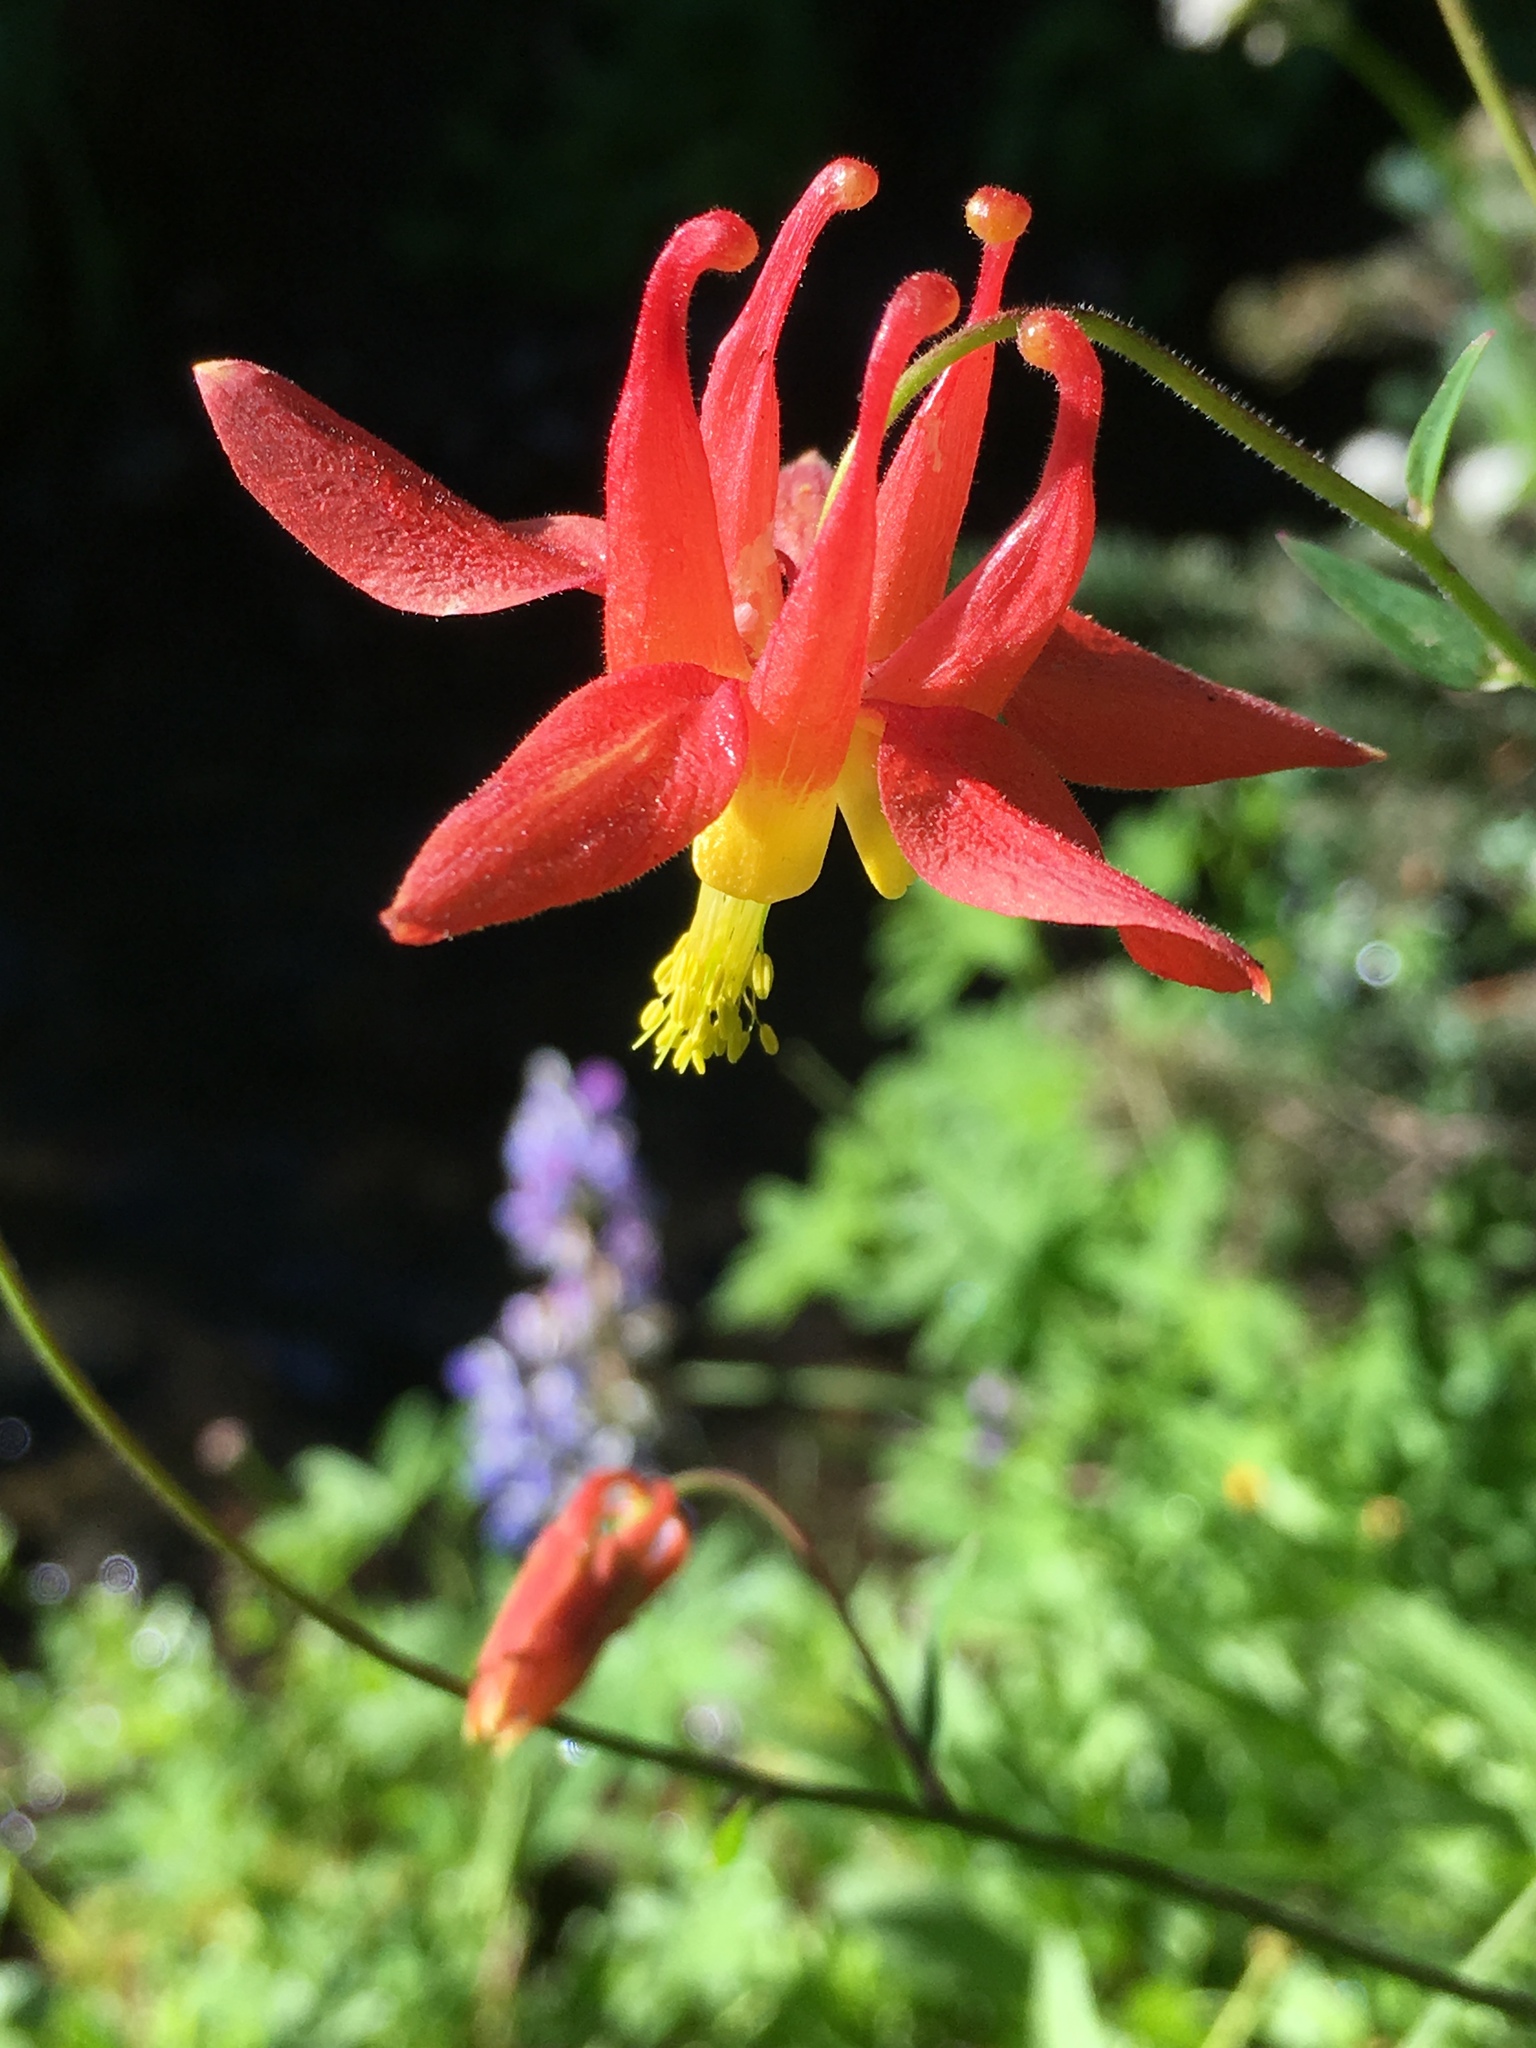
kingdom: Plantae
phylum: Tracheophyta
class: Magnoliopsida
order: Ranunculales
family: Ranunculaceae
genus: Aquilegia
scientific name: Aquilegia formosa
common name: Sitka columbine
